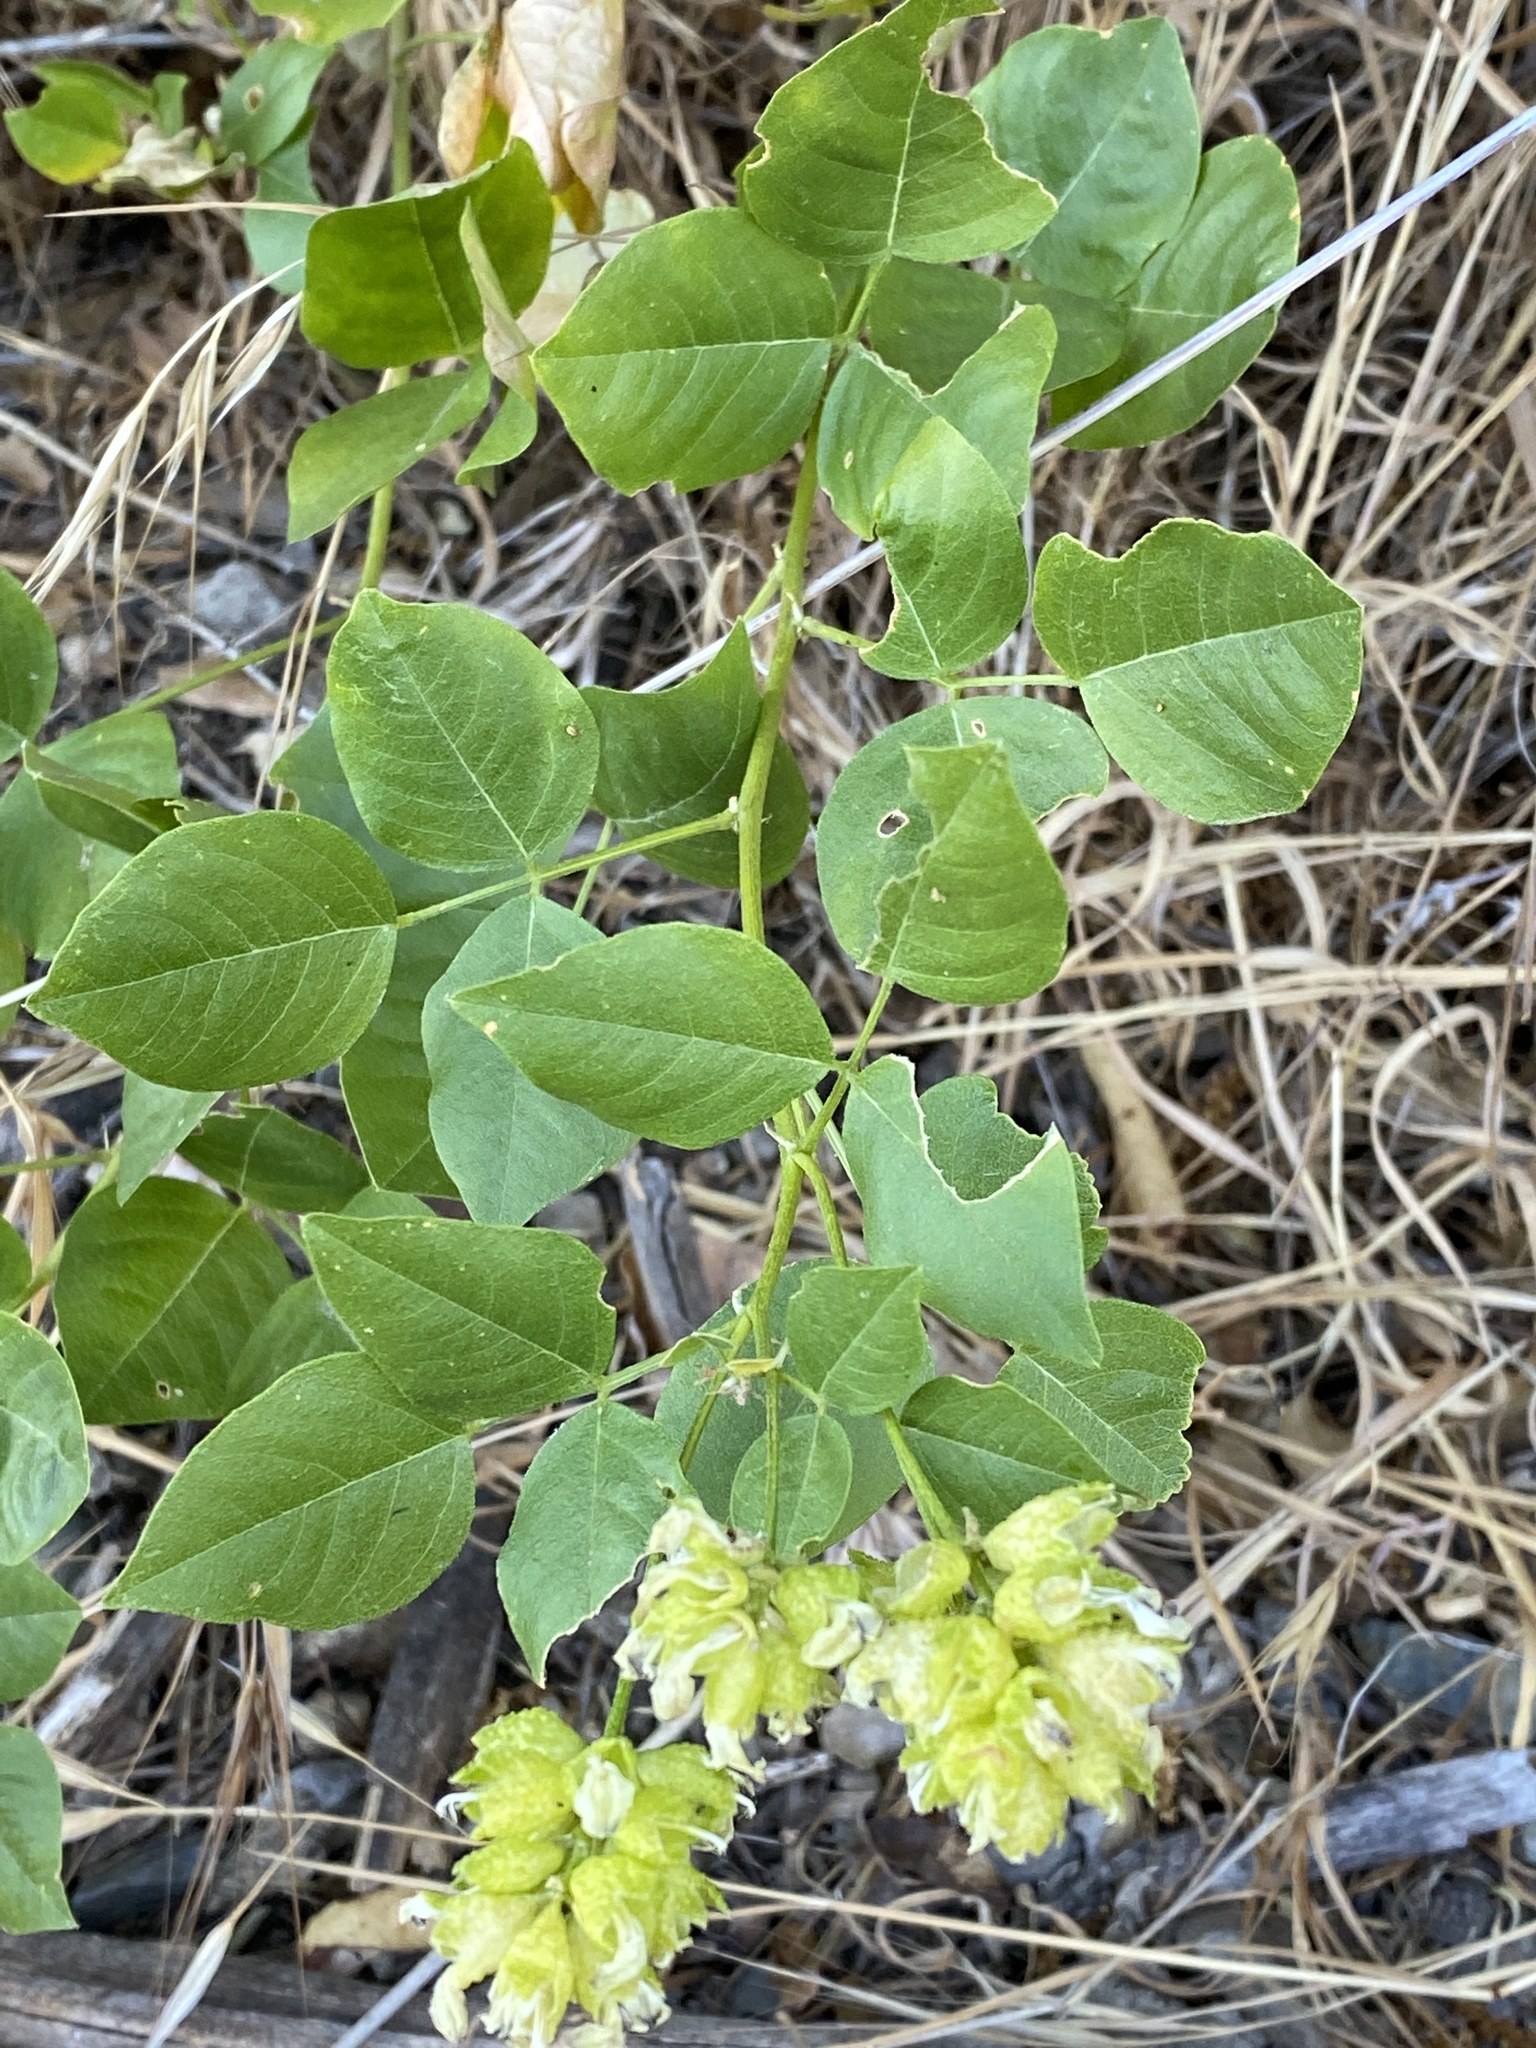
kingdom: Plantae
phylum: Tracheophyta
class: Magnoliopsida
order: Fabales
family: Fabaceae
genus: Rupertia
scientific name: Rupertia physodes
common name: California-tea
